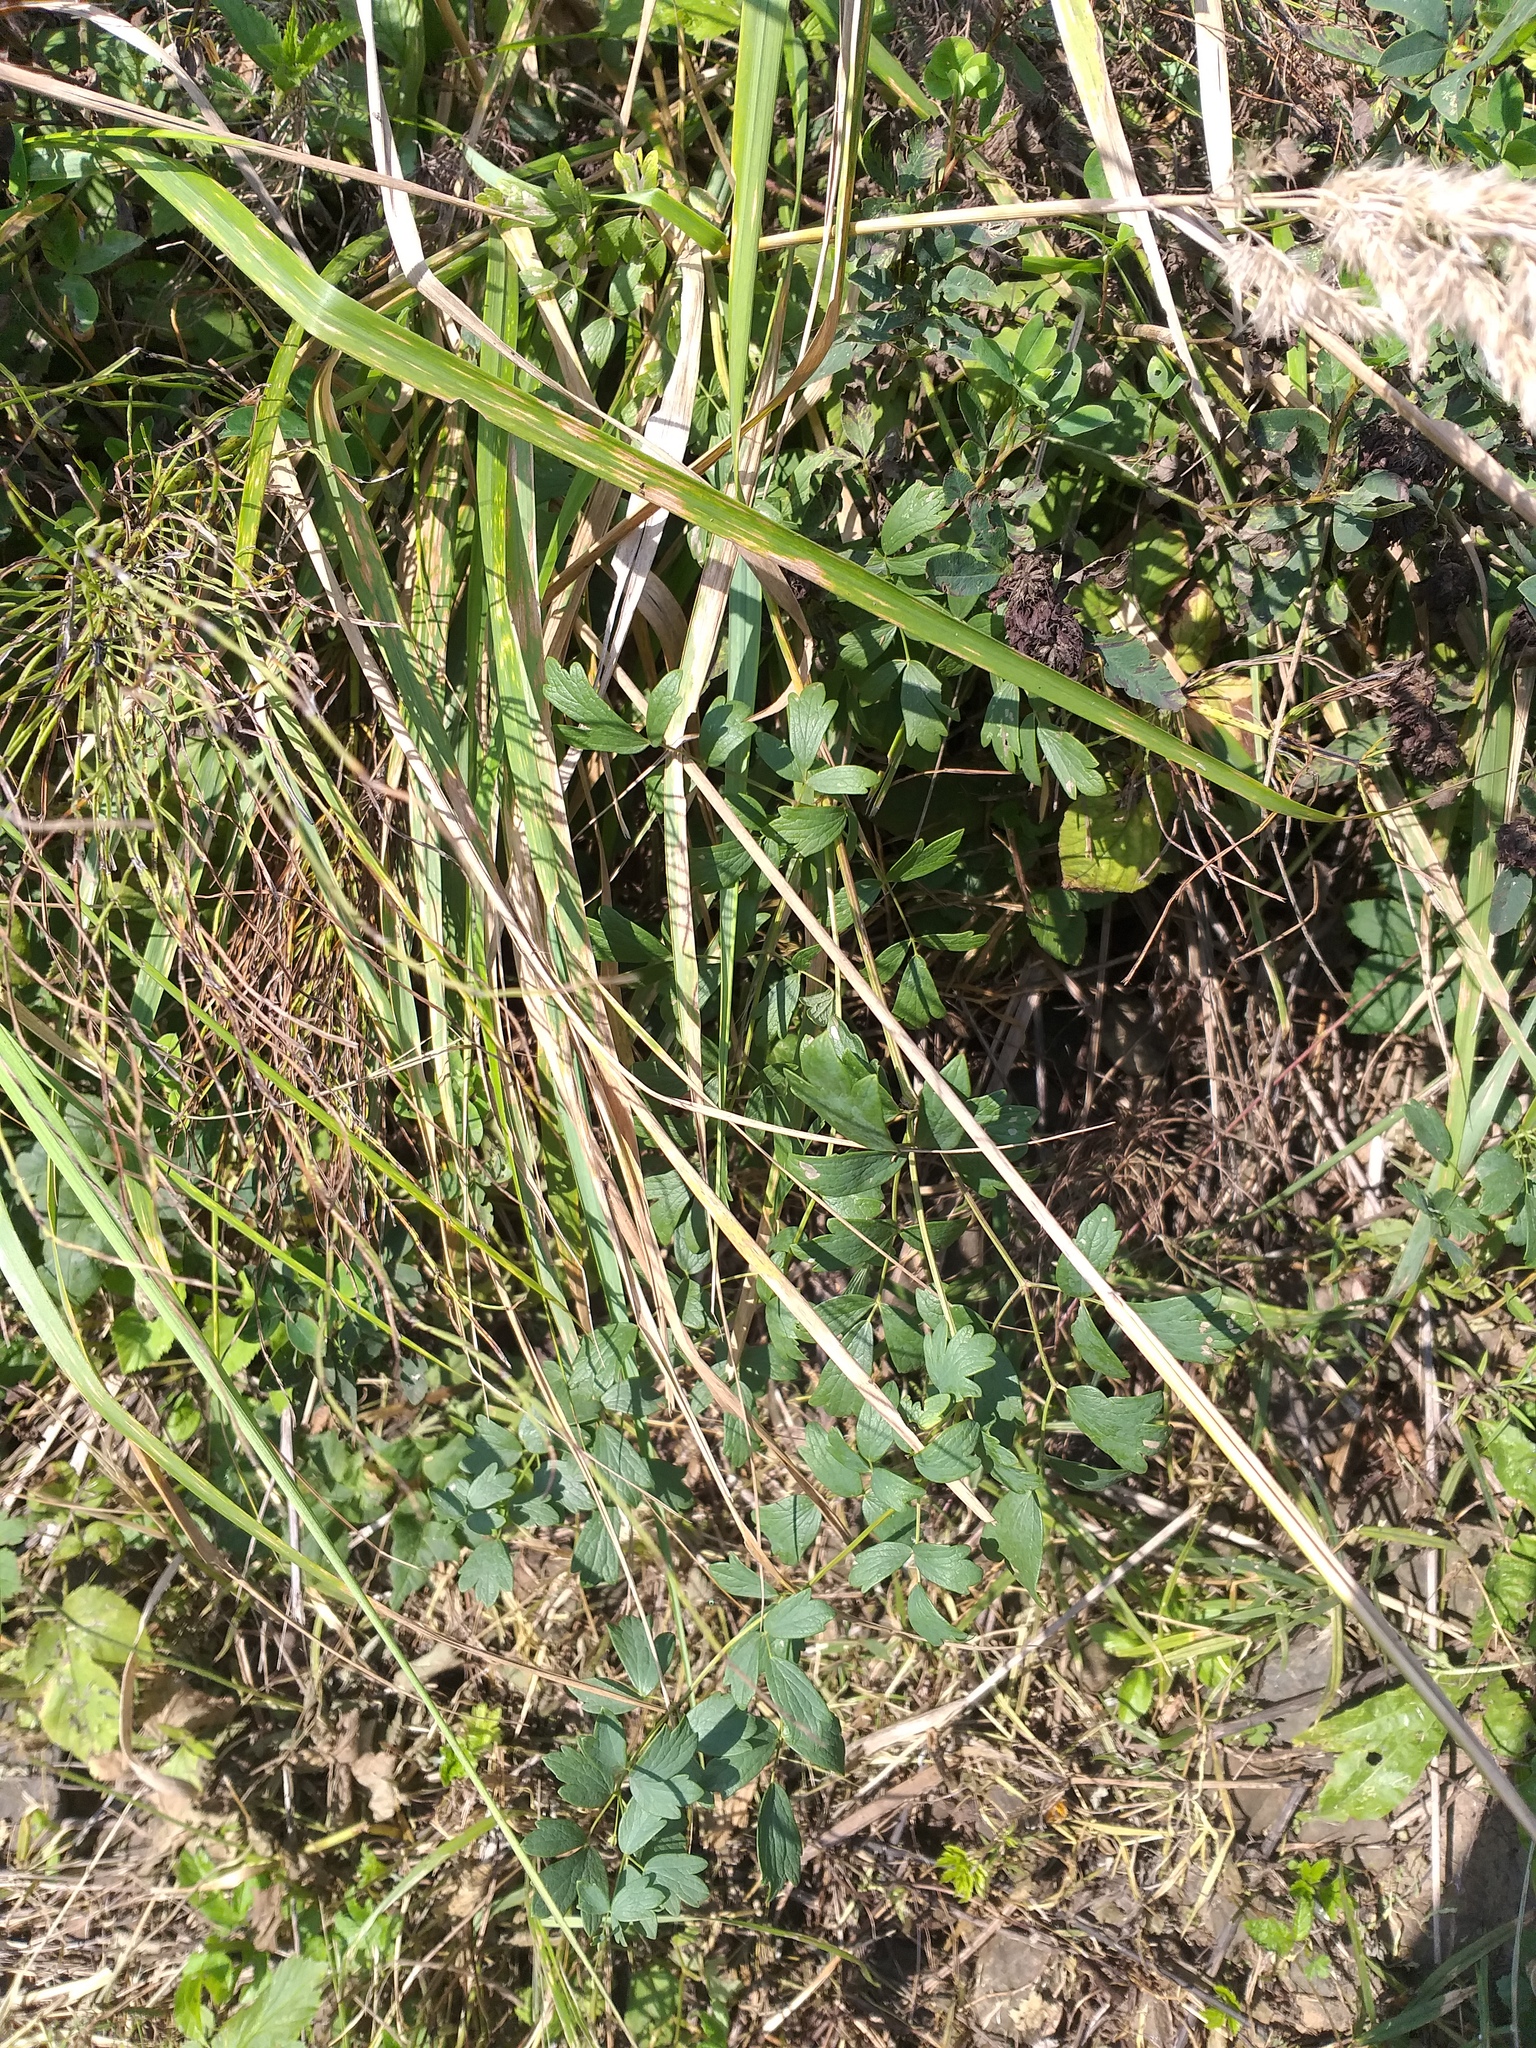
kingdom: Plantae
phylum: Tracheophyta
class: Magnoliopsida
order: Ranunculales
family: Ranunculaceae
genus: Thalictrum
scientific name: Thalictrum flavum
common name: Common meadow-rue
